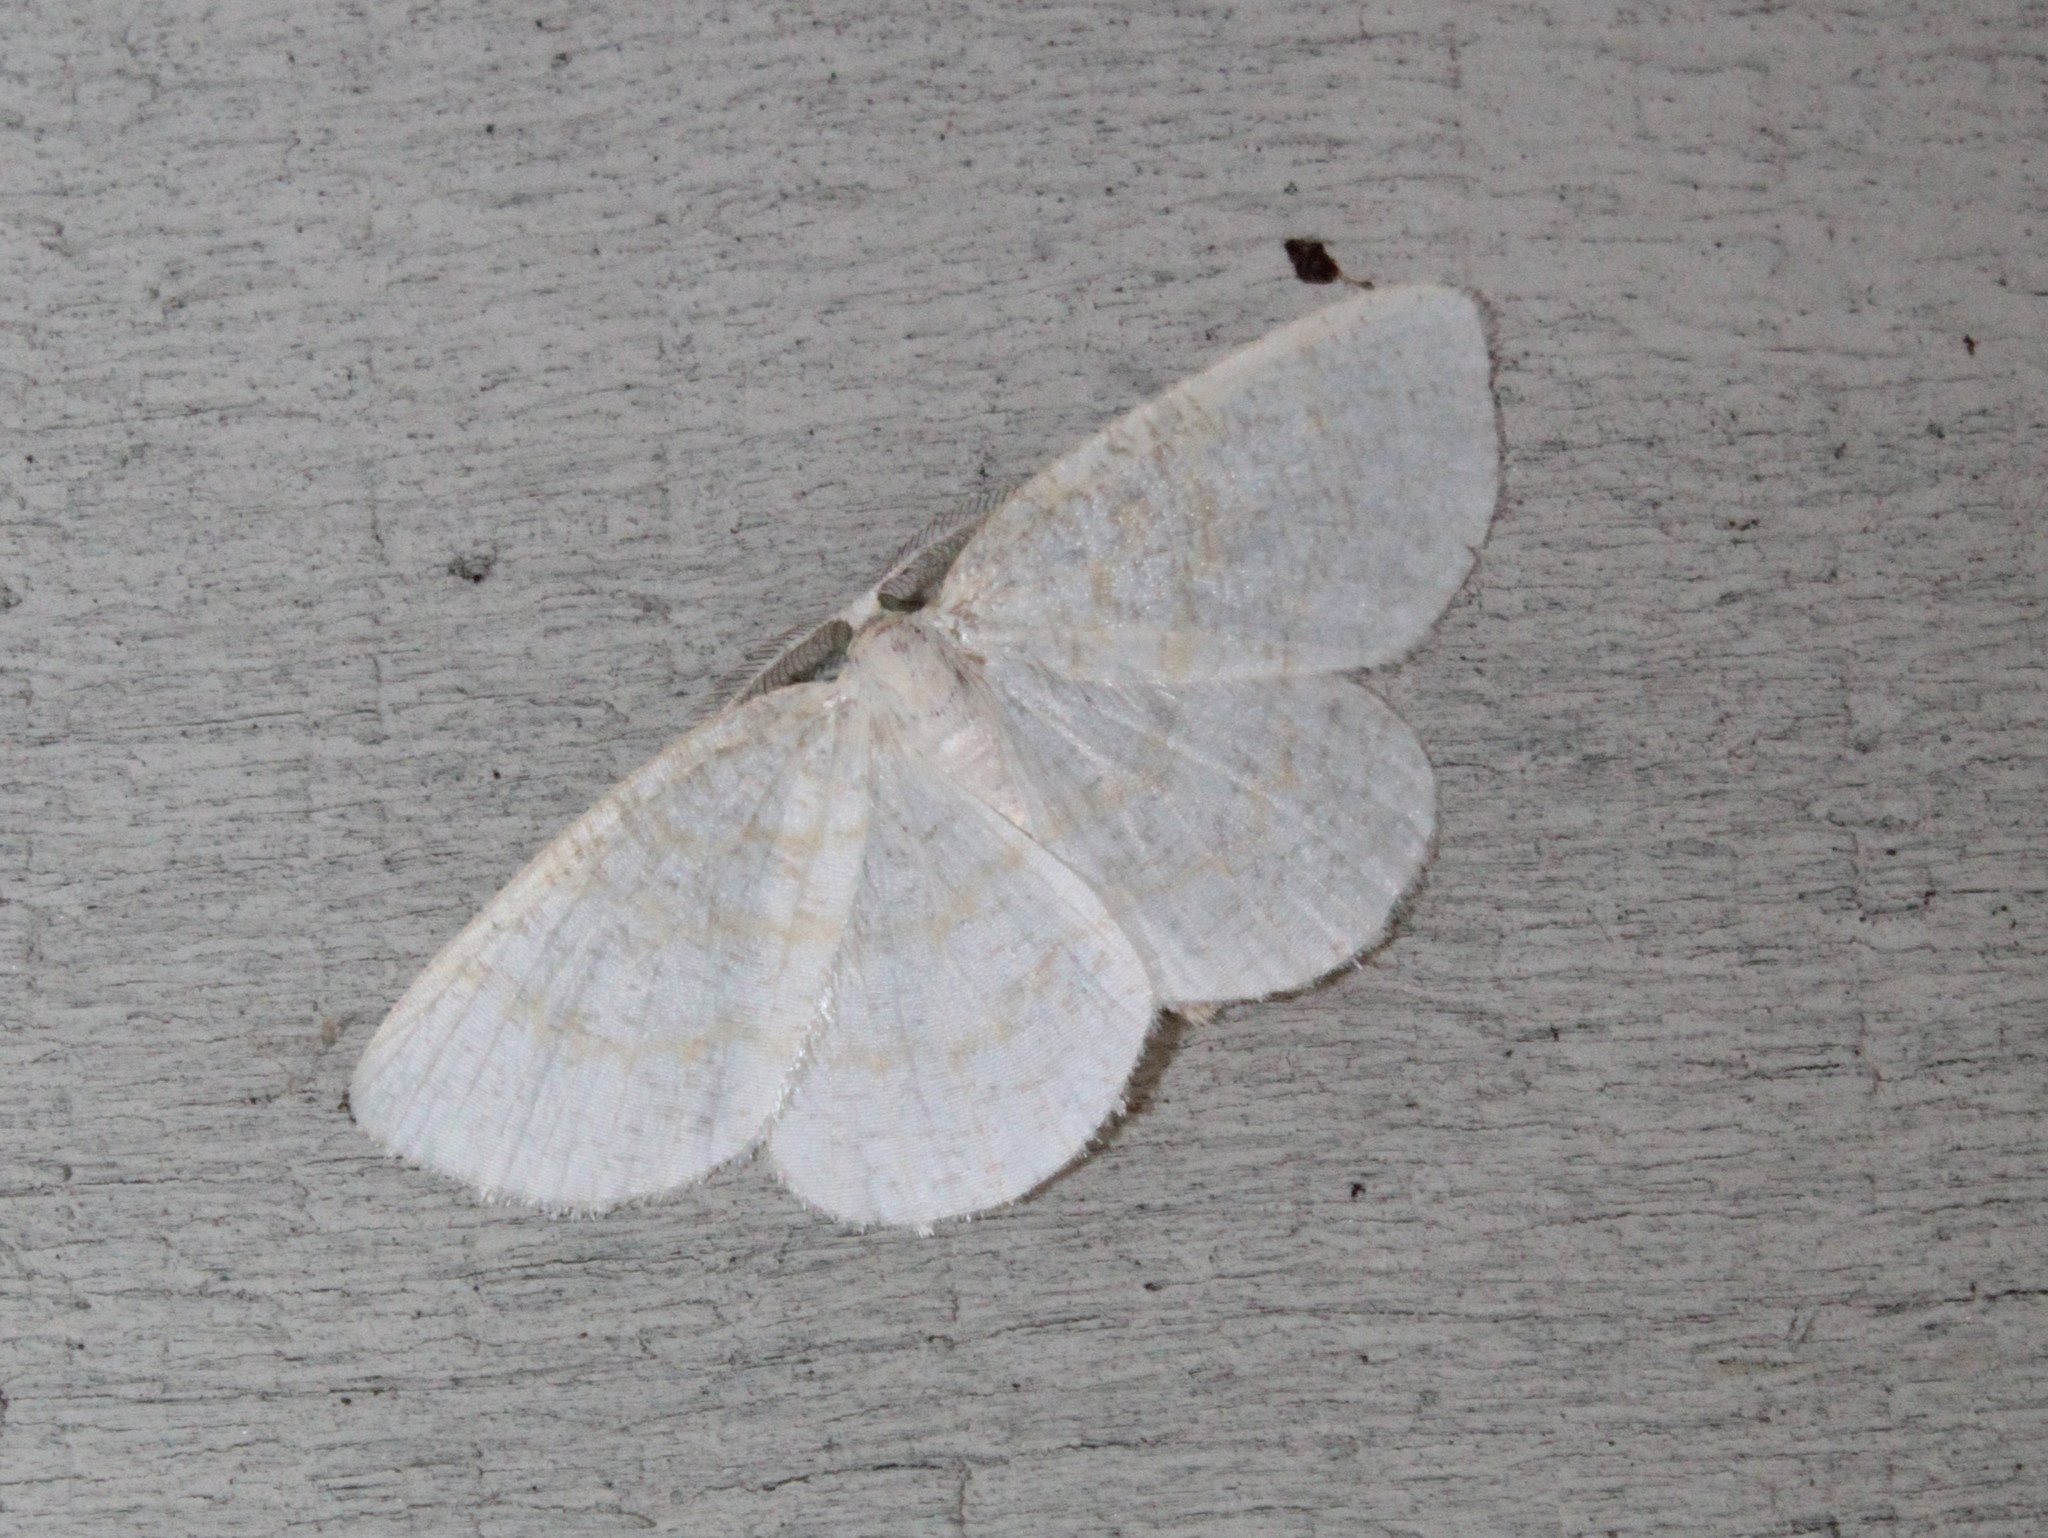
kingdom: Animalia
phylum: Arthropoda
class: Insecta
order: Lepidoptera
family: Geometridae
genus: Cabera
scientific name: Cabera erythemaria
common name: Yellow-dusted cream moth
